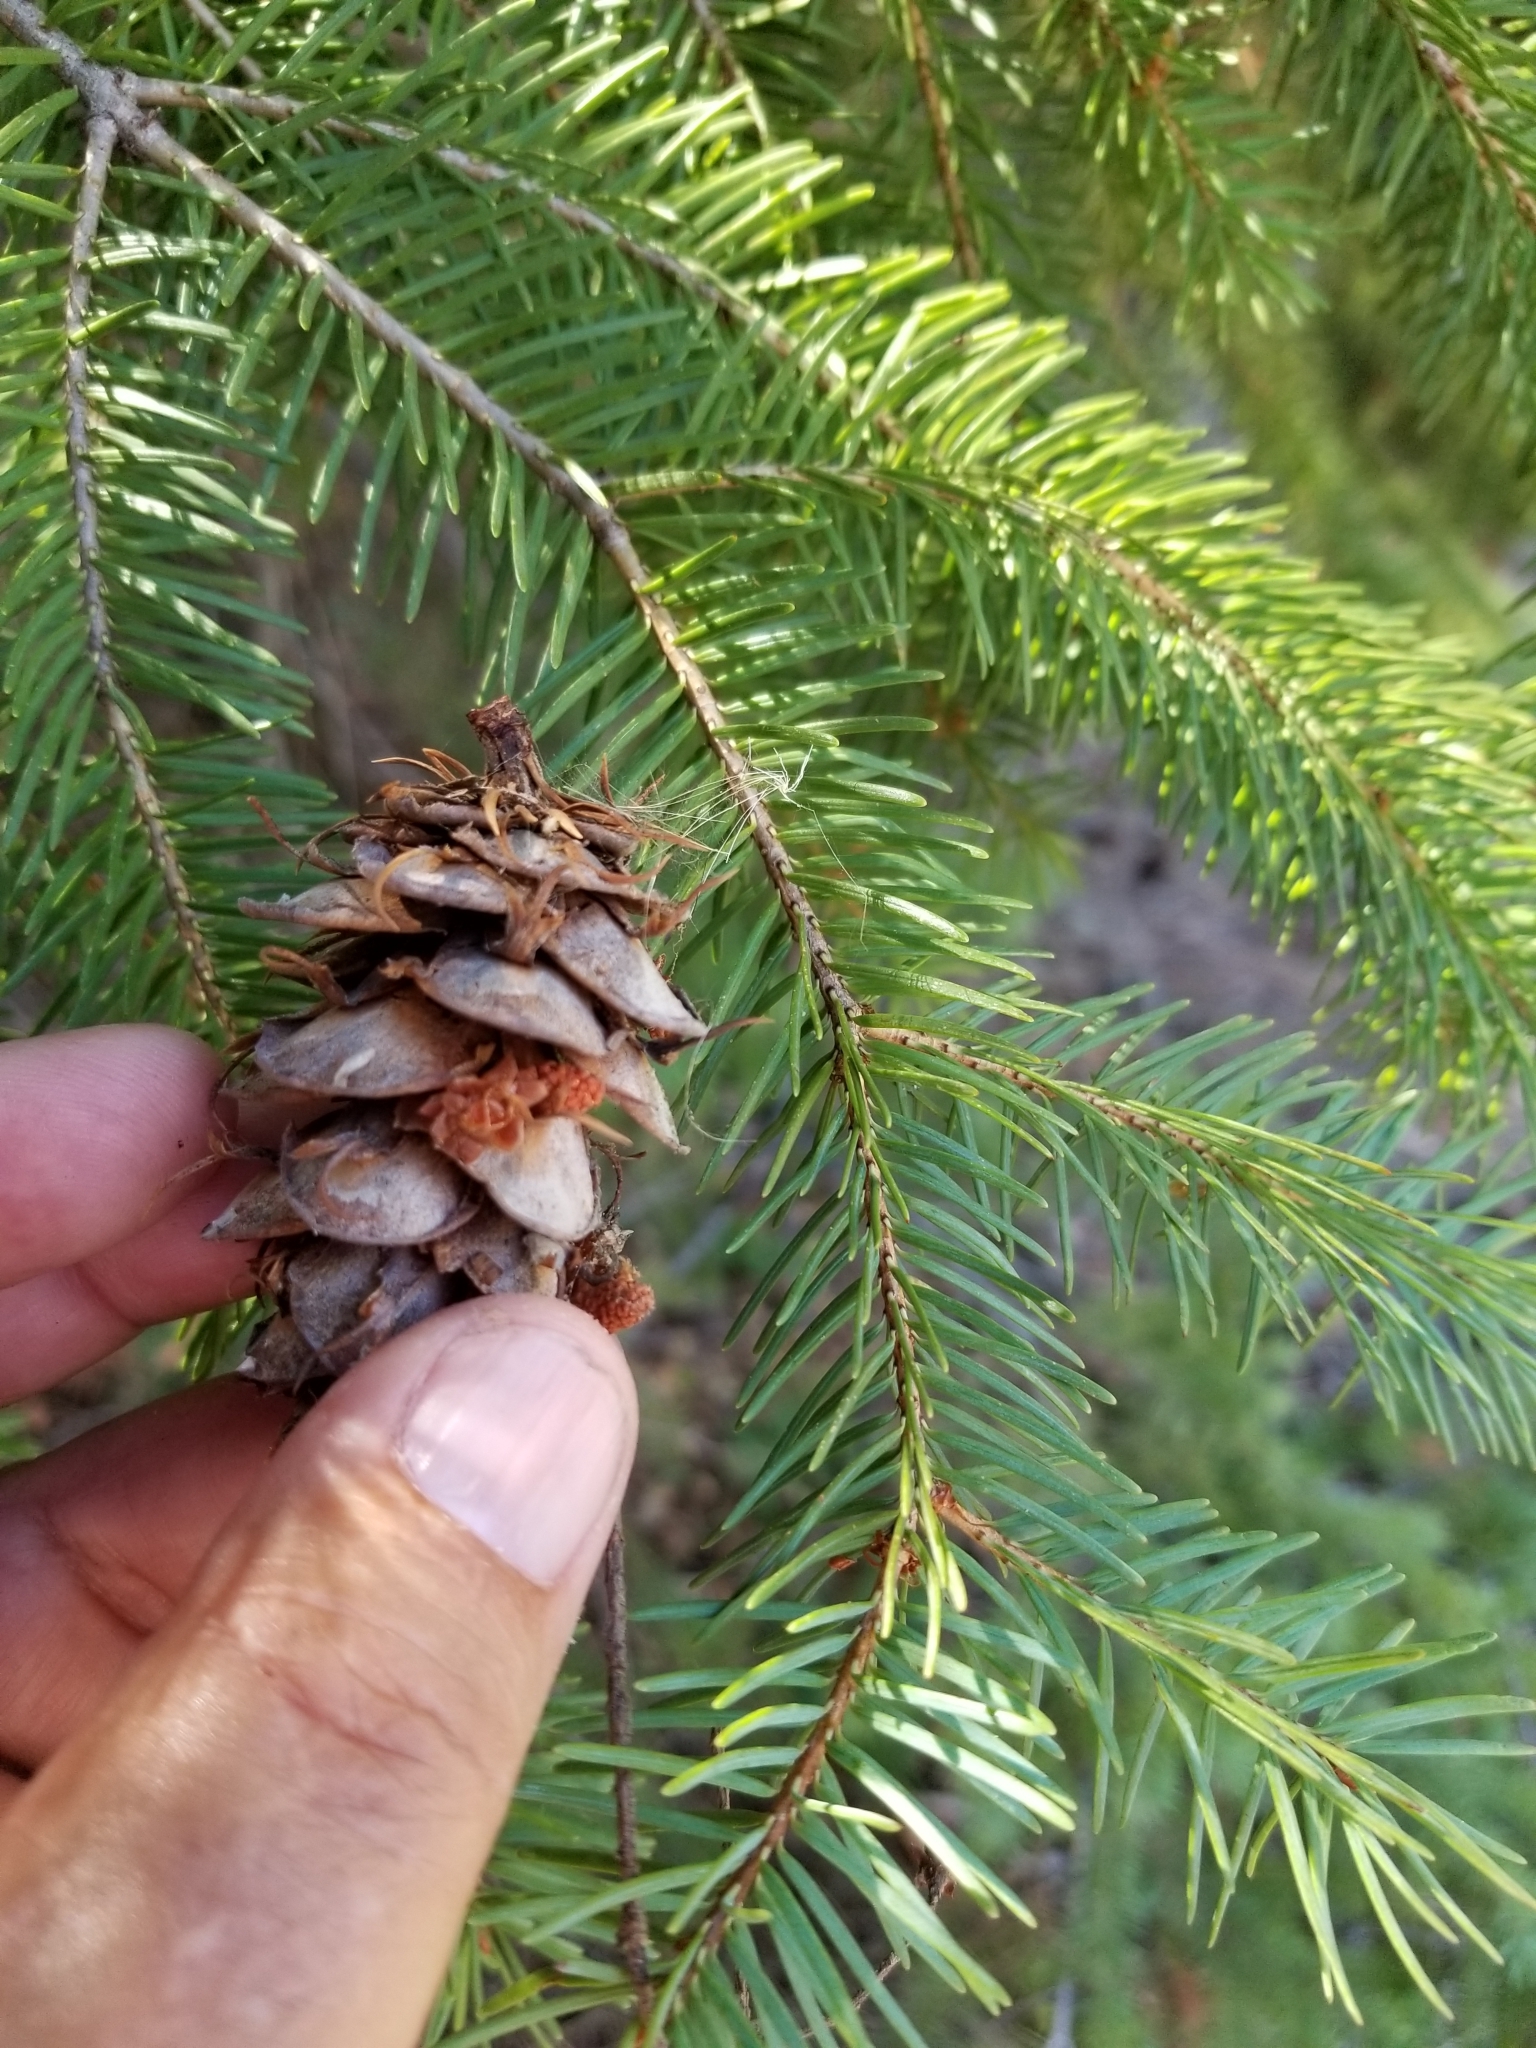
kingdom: Plantae
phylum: Tracheophyta
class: Pinopsida
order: Pinales
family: Pinaceae
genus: Pseudotsuga
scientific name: Pseudotsuga menziesii
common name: Douglas fir
